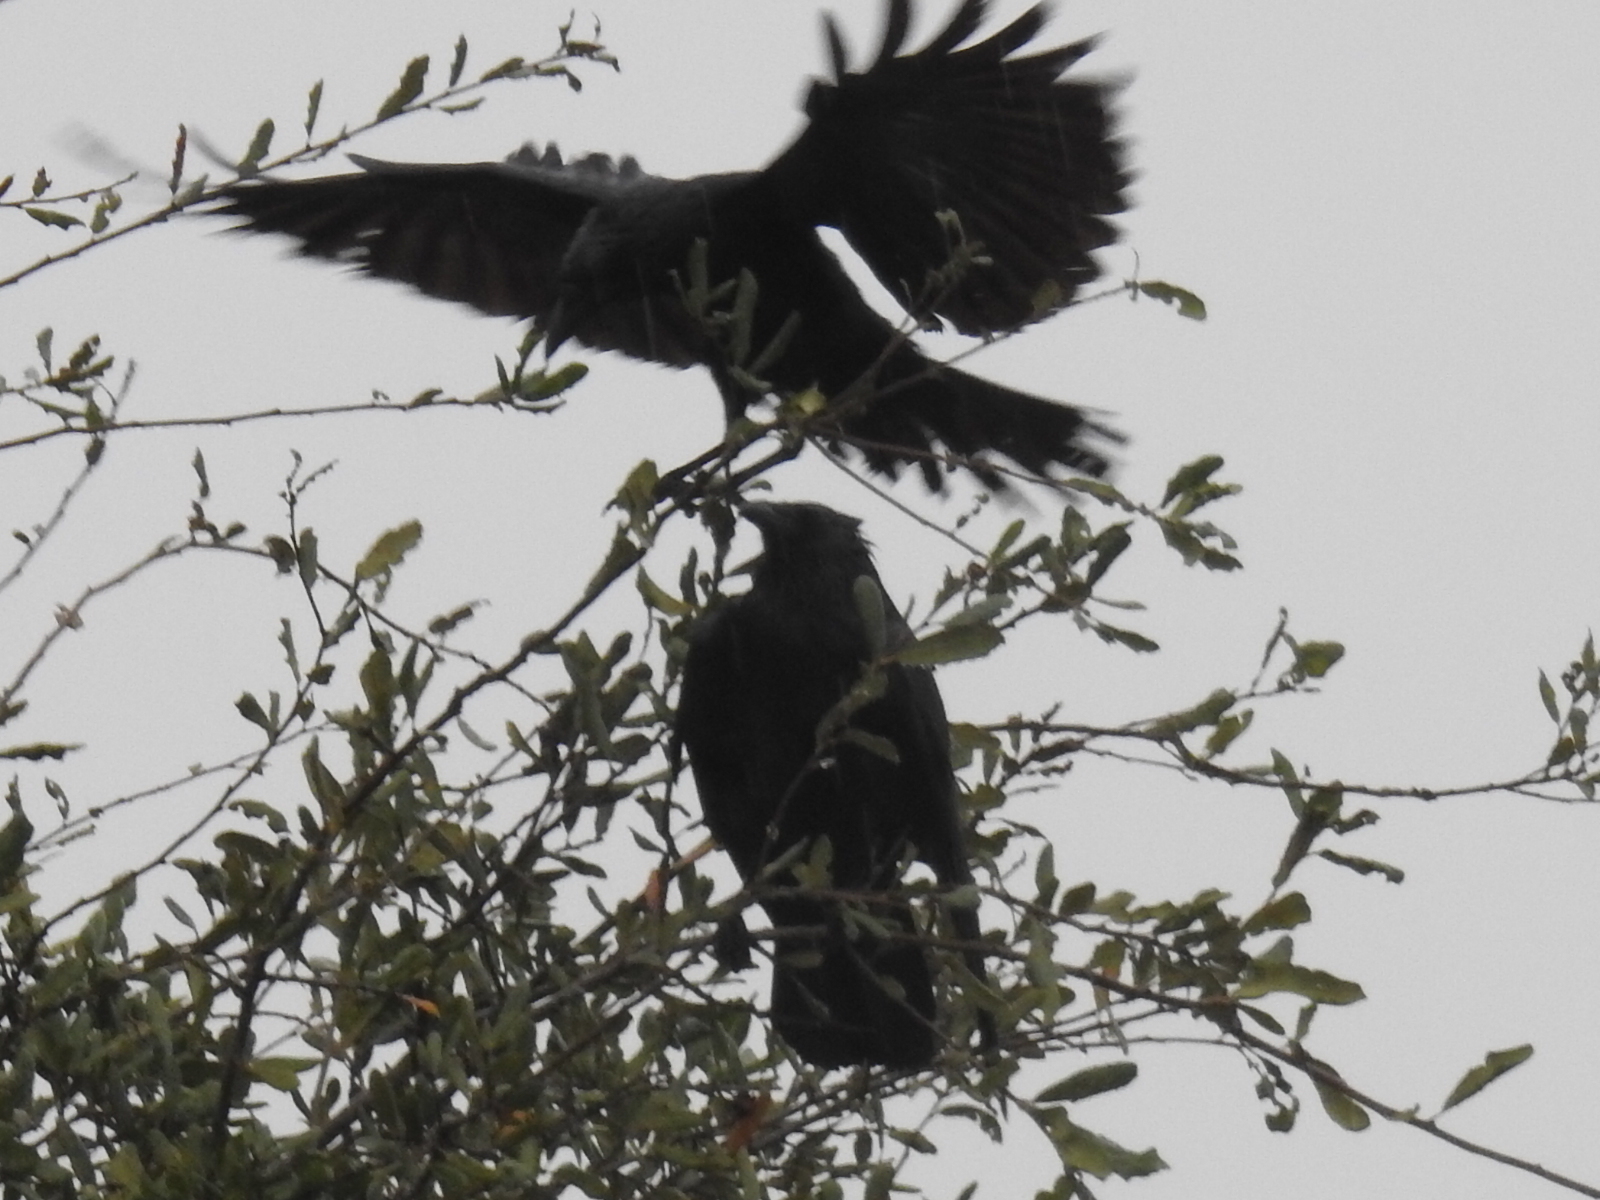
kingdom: Animalia
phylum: Chordata
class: Aves
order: Passeriformes
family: Corvidae
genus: Corvus
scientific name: Corvus ossifragus
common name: Fish crow
